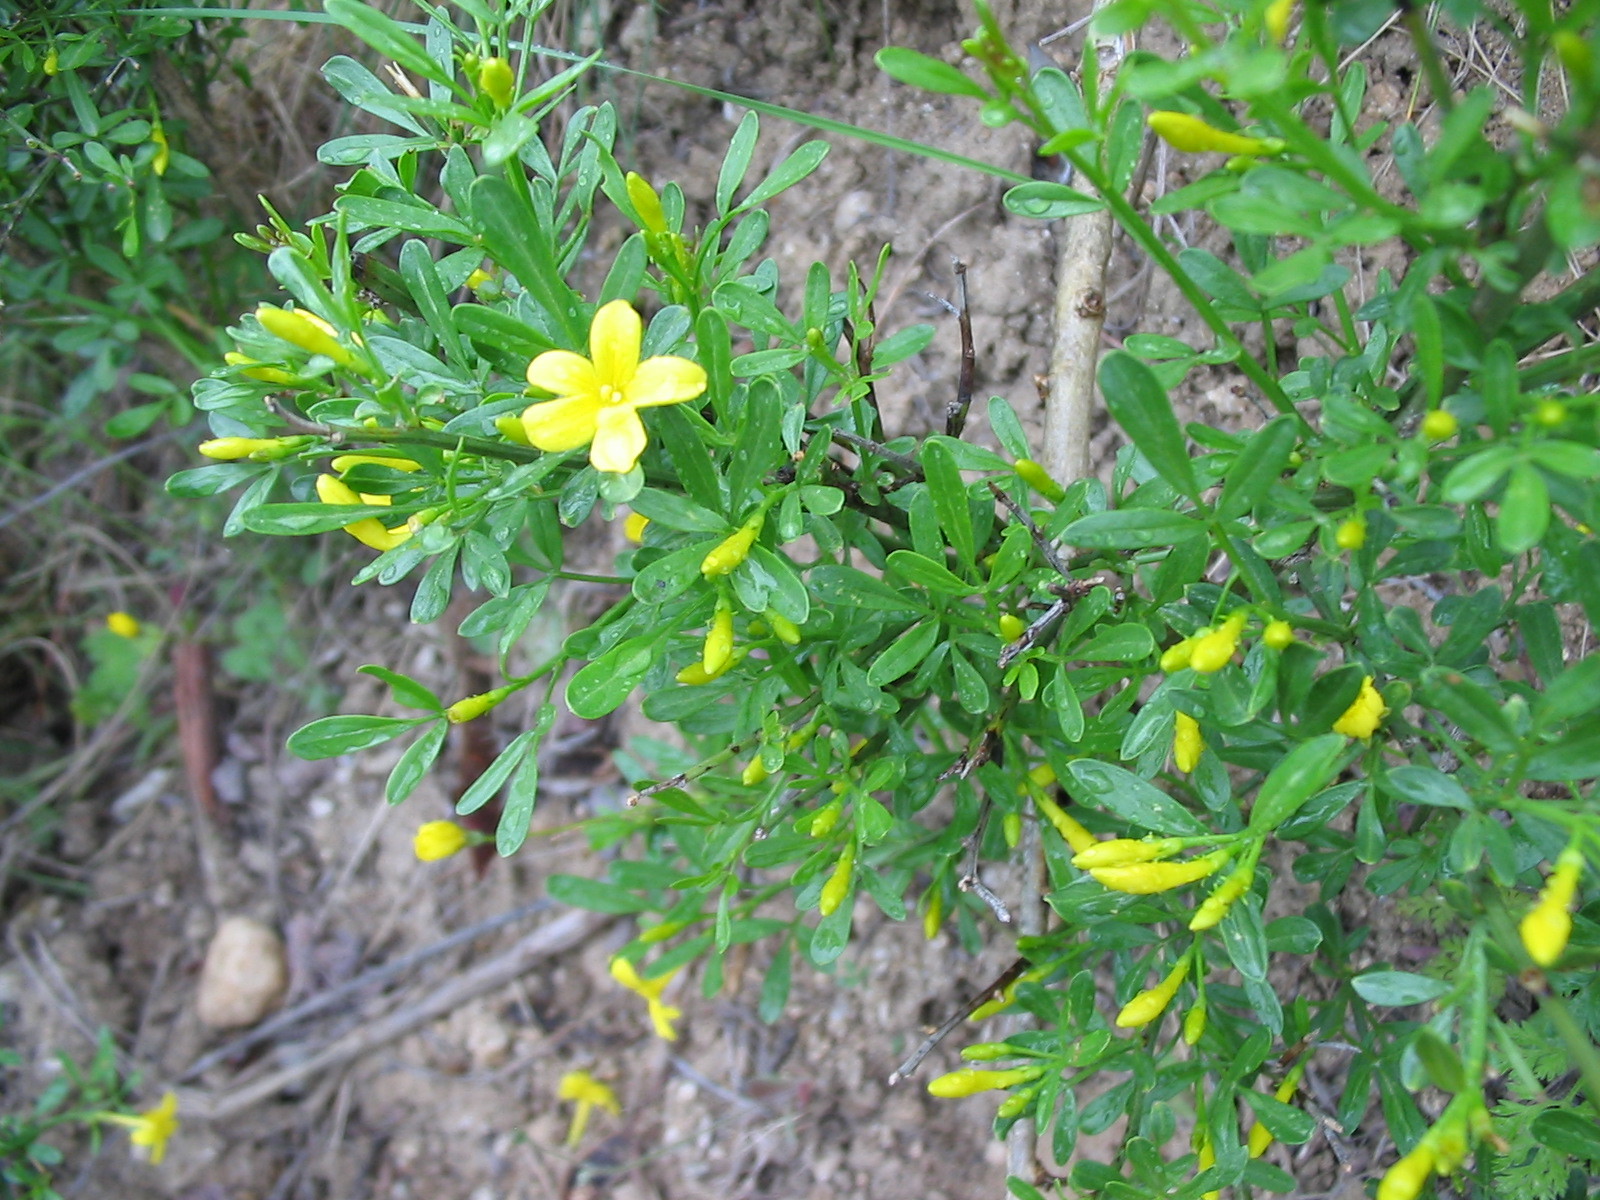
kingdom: Plantae
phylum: Tracheophyta
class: Magnoliopsida
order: Lamiales
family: Oleaceae
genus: Chrysojasminum
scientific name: Chrysojasminum fruticans
